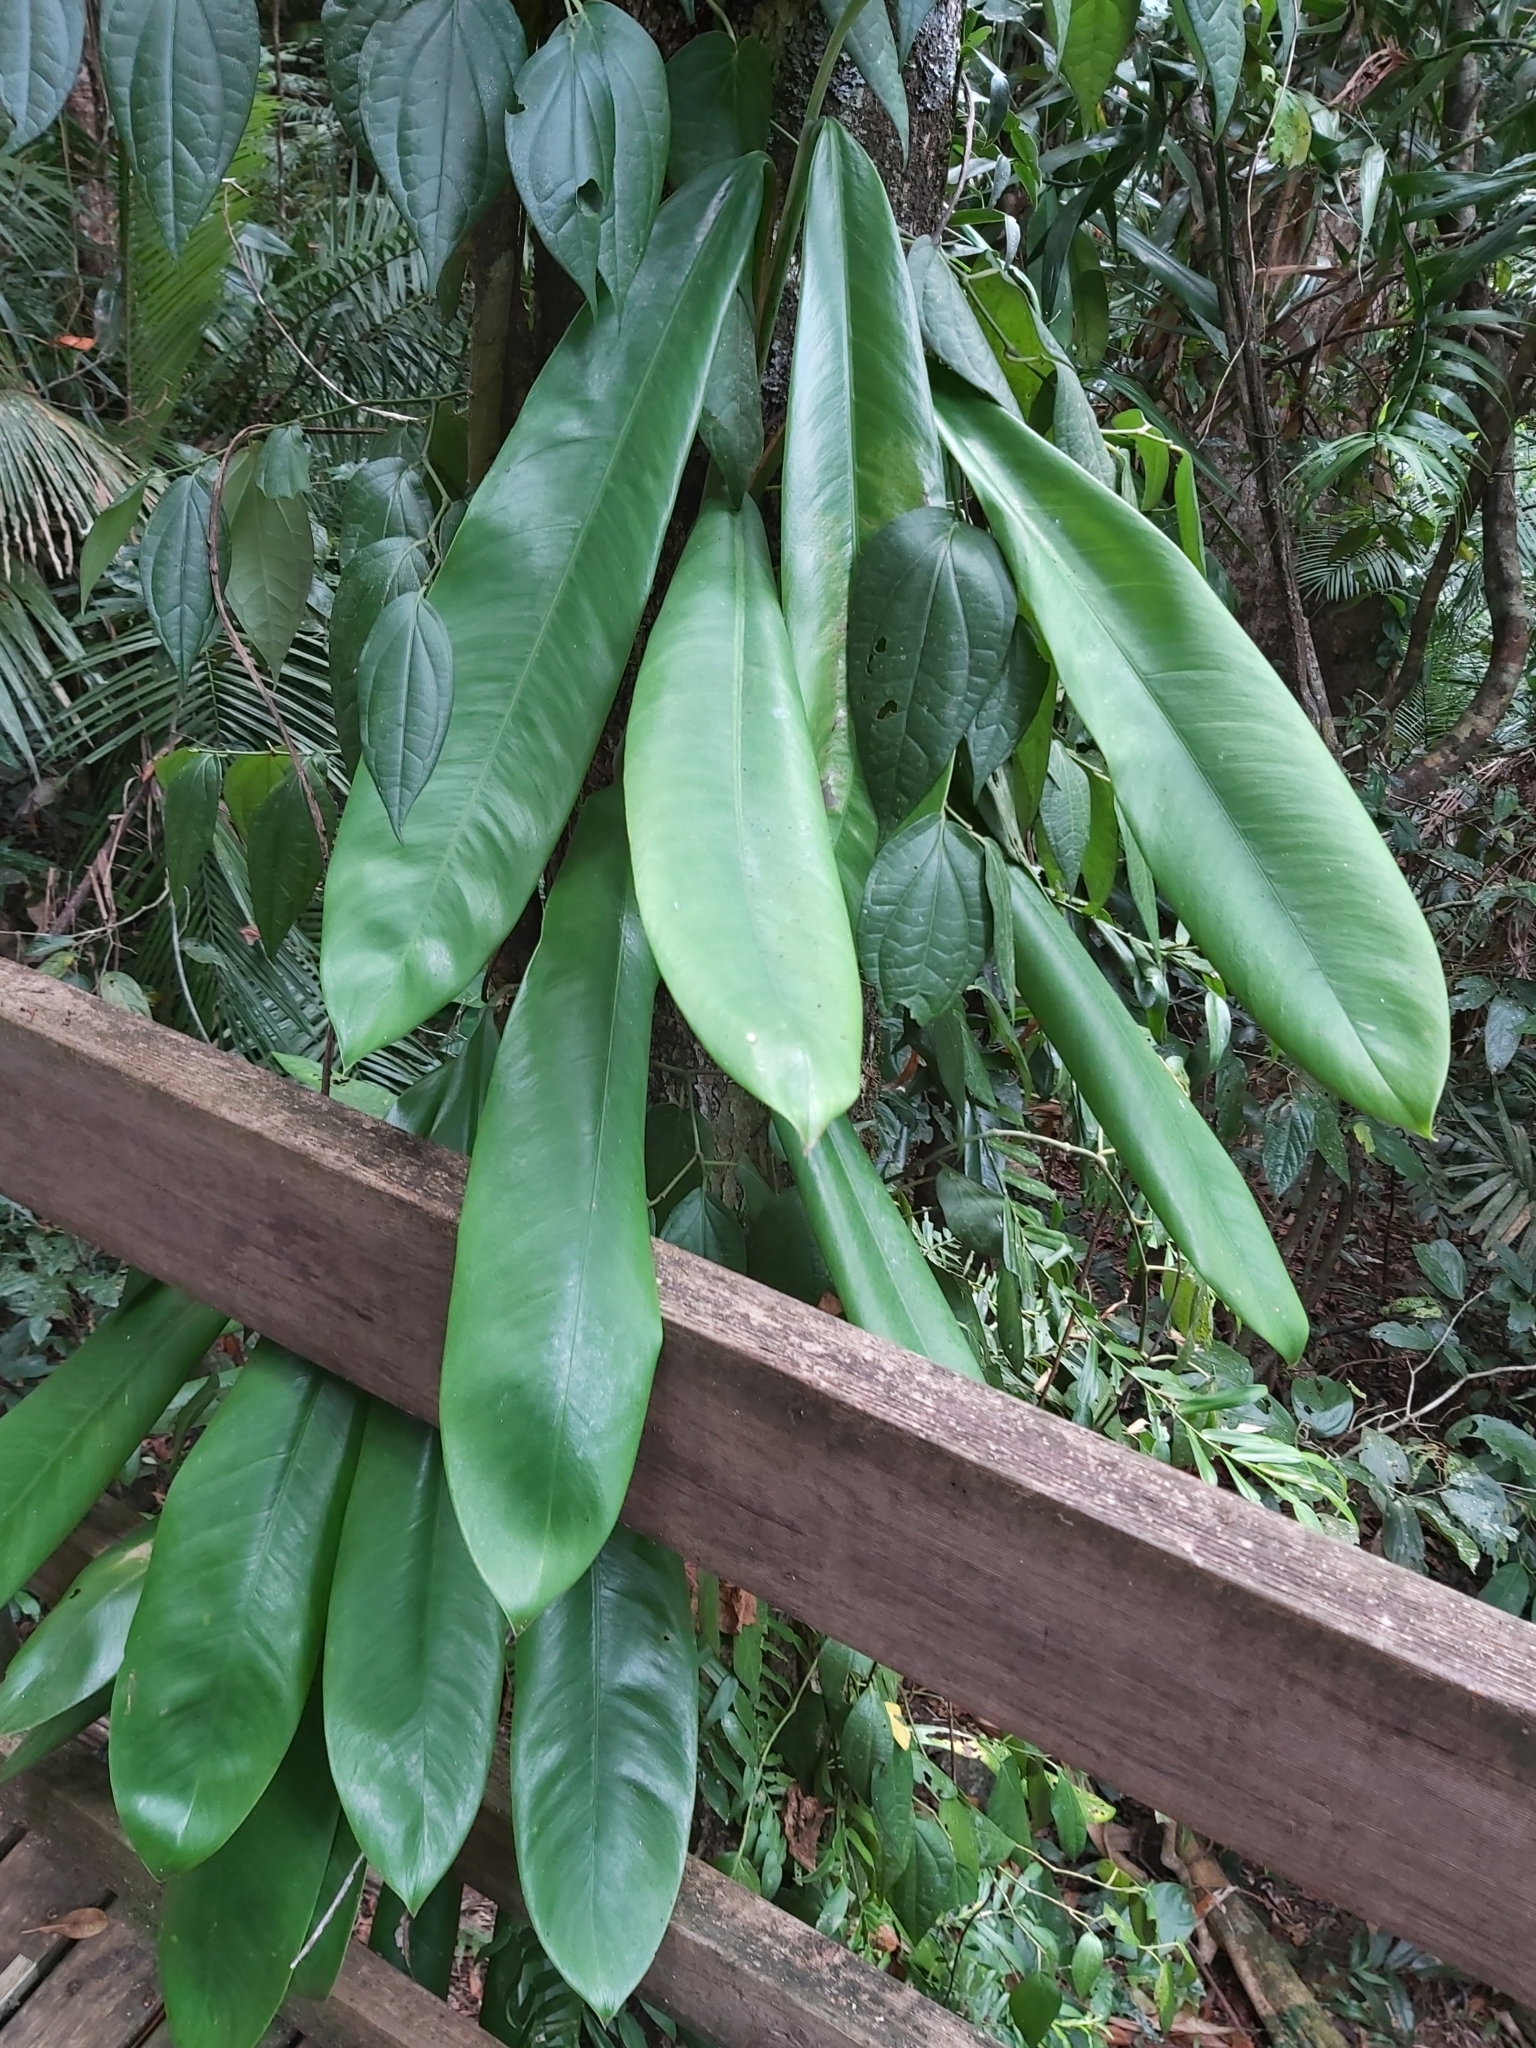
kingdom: Plantae
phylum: Tracheophyta
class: Liliopsida
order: Alismatales
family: Araceae
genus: Rhaphidophora
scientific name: Rhaphidophora australasica
